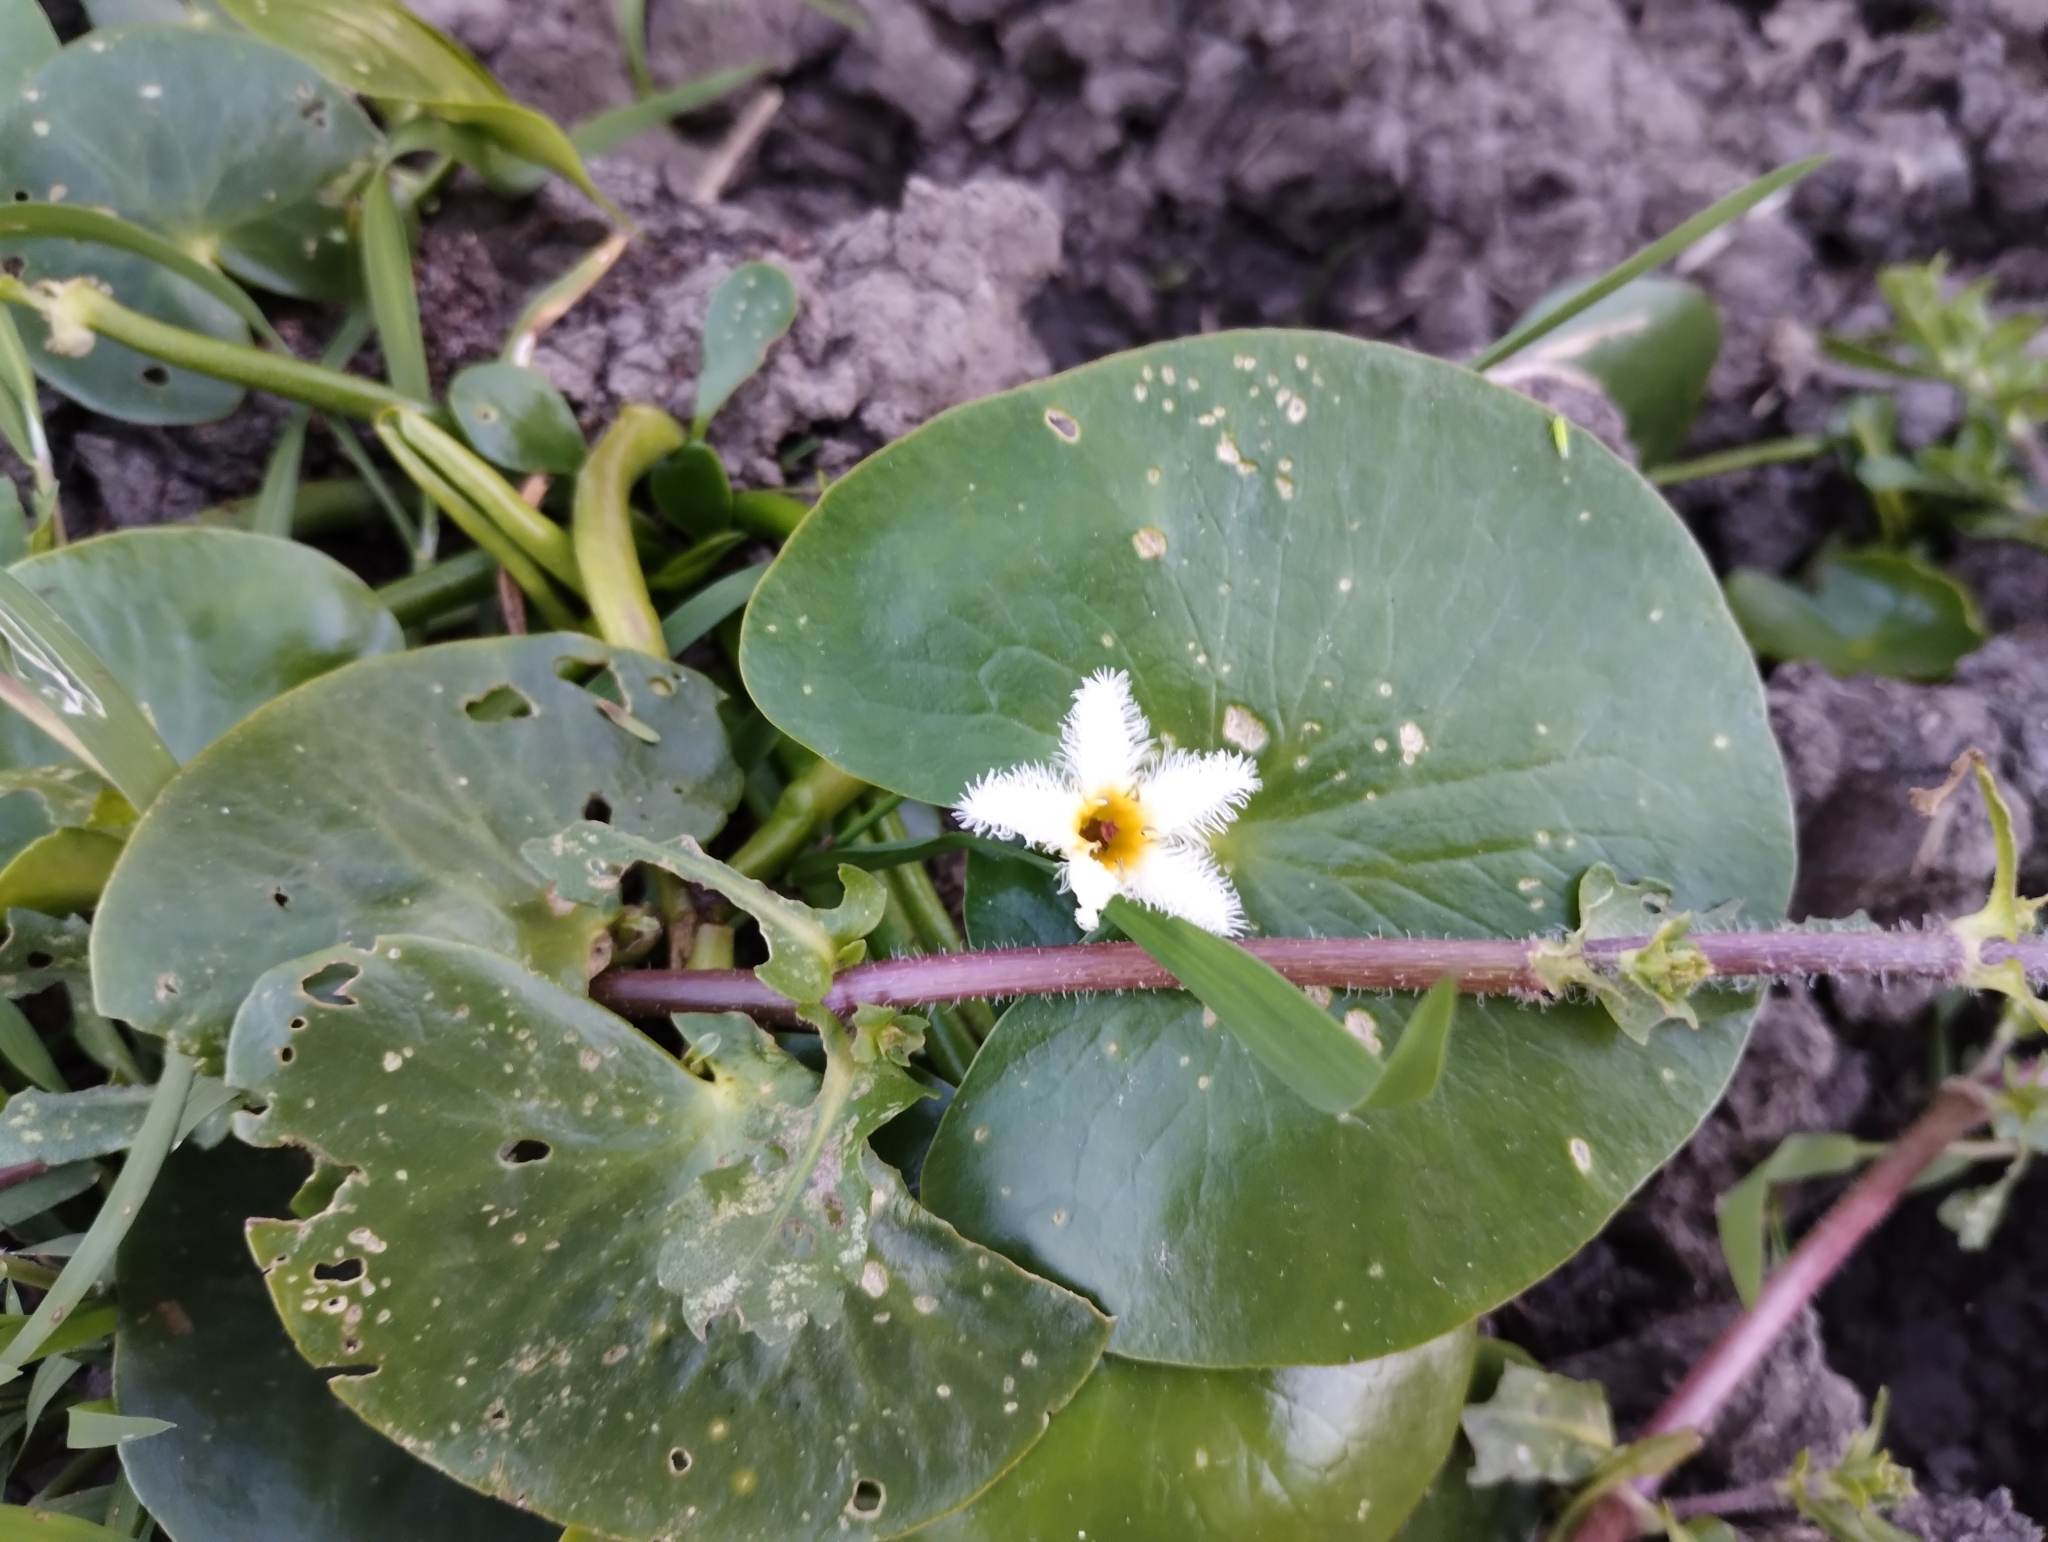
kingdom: Plantae
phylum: Tracheophyta
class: Magnoliopsida
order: Asterales
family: Menyanthaceae
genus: Nymphoides
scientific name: Nymphoides humboldtiana
